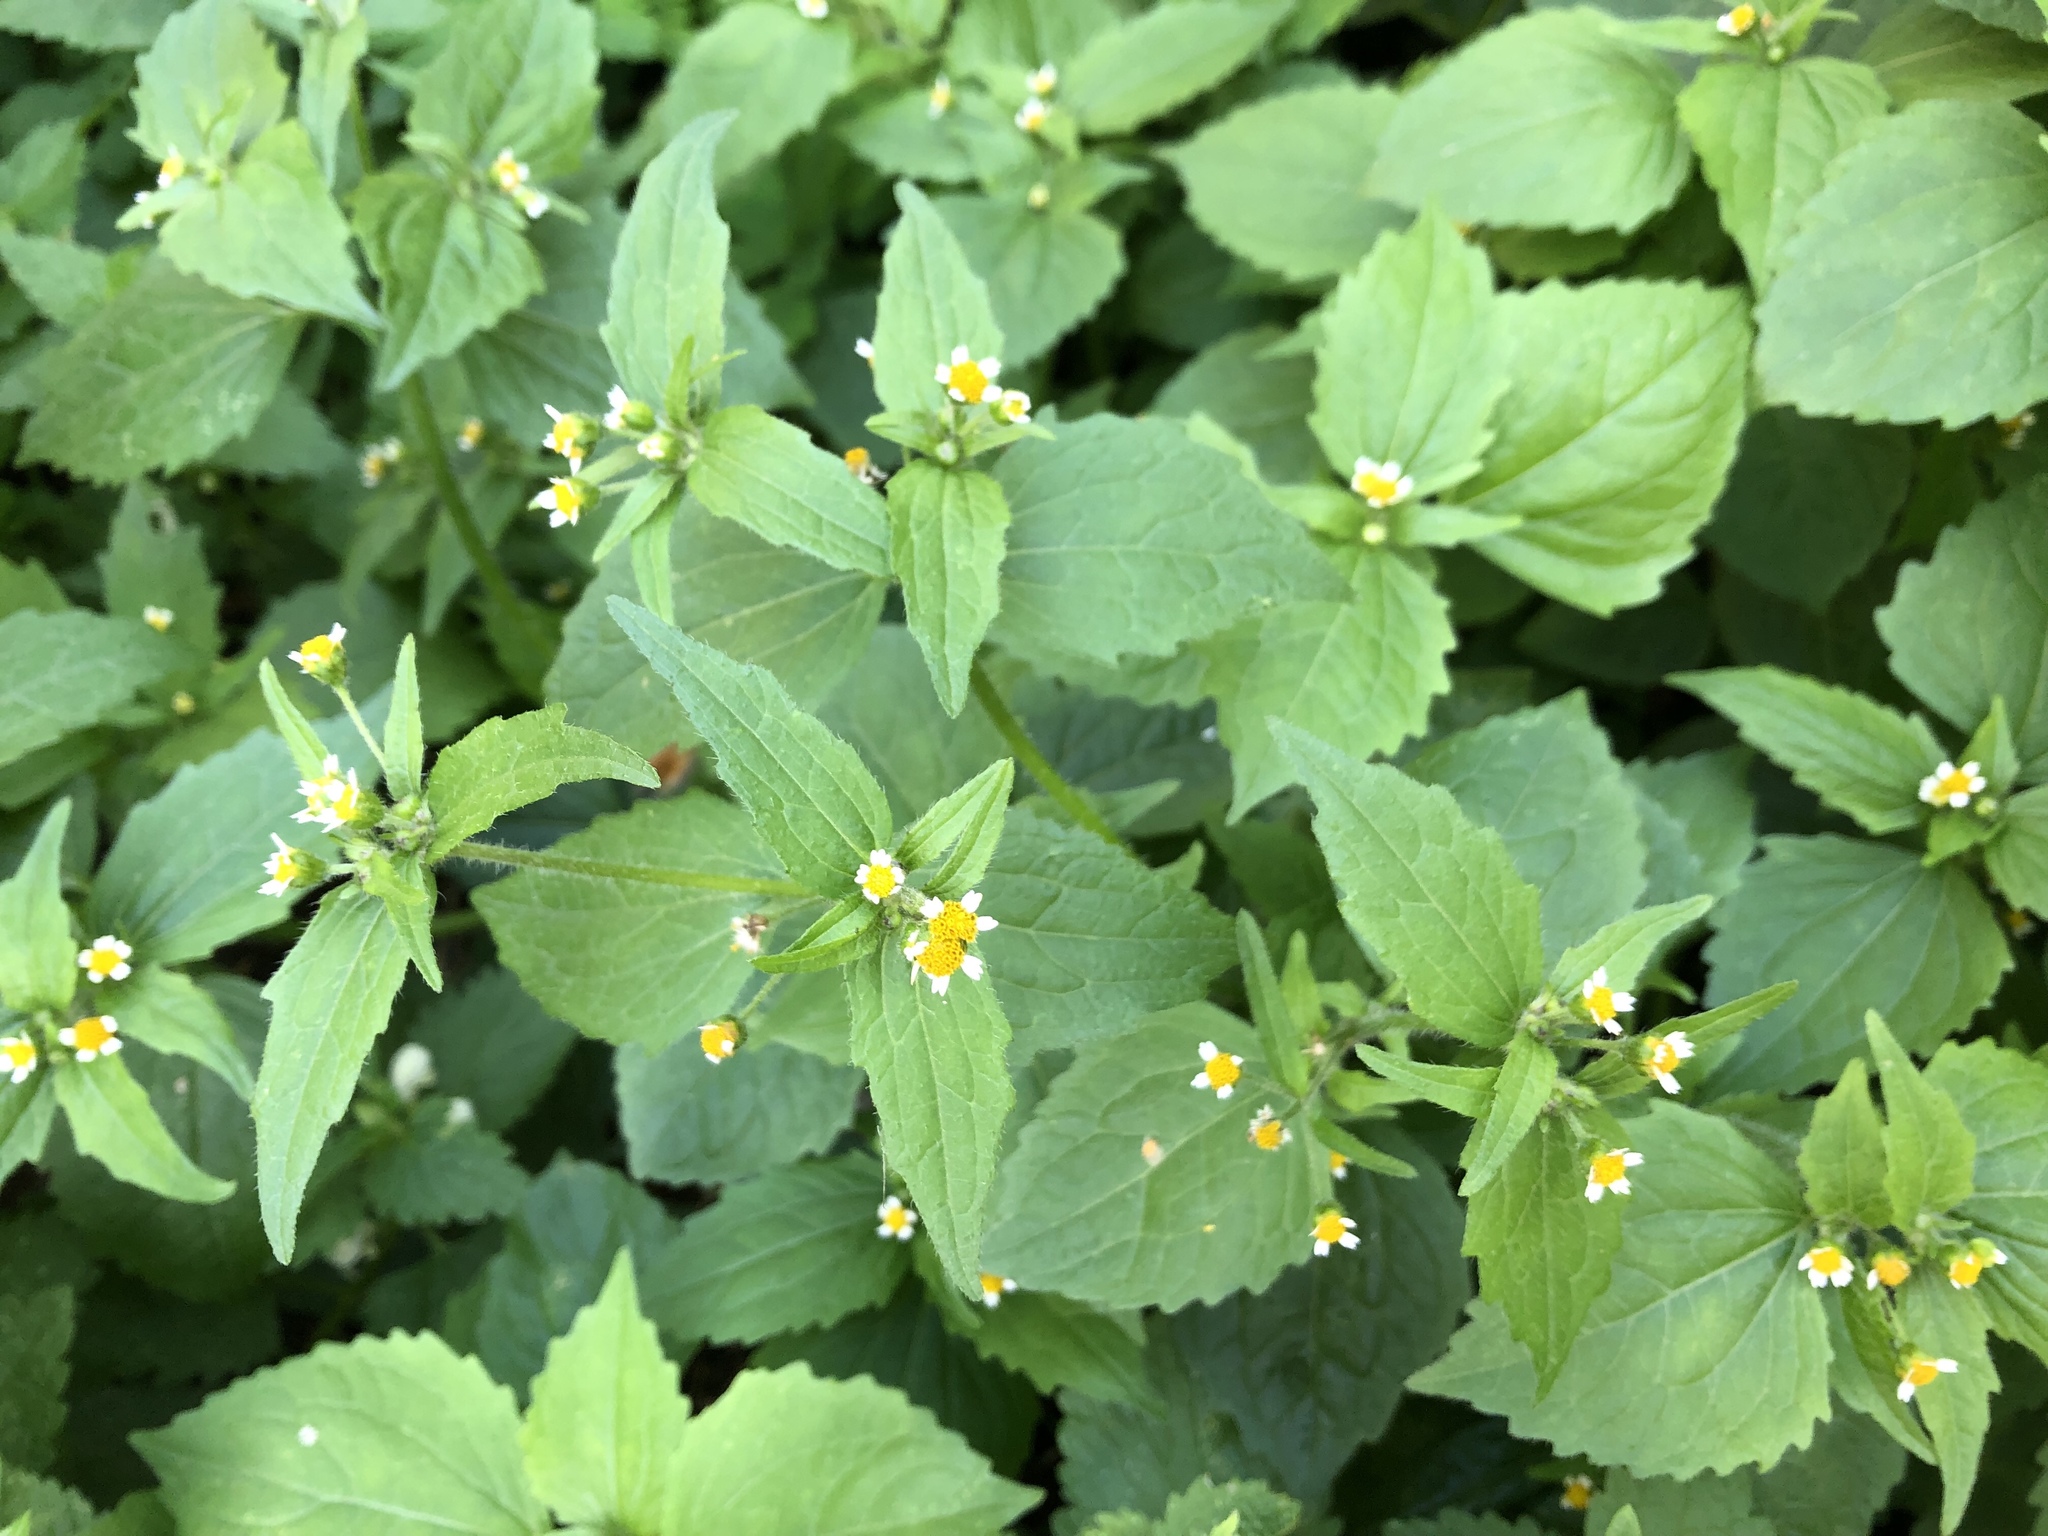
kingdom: Plantae
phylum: Tracheophyta
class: Magnoliopsida
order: Asterales
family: Asteraceae
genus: Galinsoga
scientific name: Galinsoga quadriradiata
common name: Shaggy soldier
